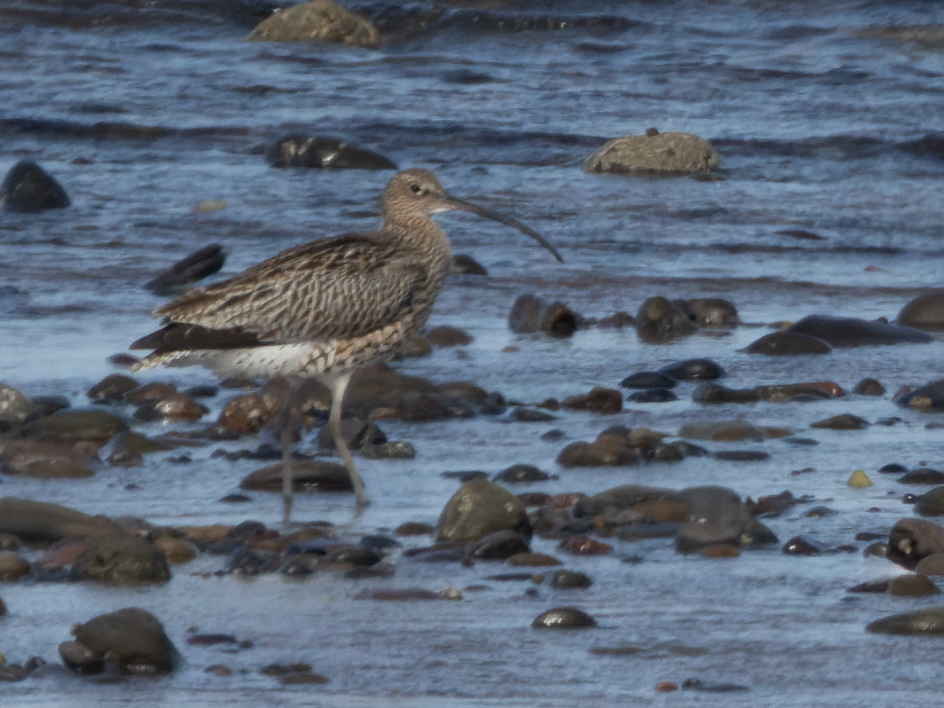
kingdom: Animalia
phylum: Chordata
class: Aves
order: Charadriiformes
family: Scolopacidae
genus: Numenius
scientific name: Numenius arquata
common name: Eurasian curlew
